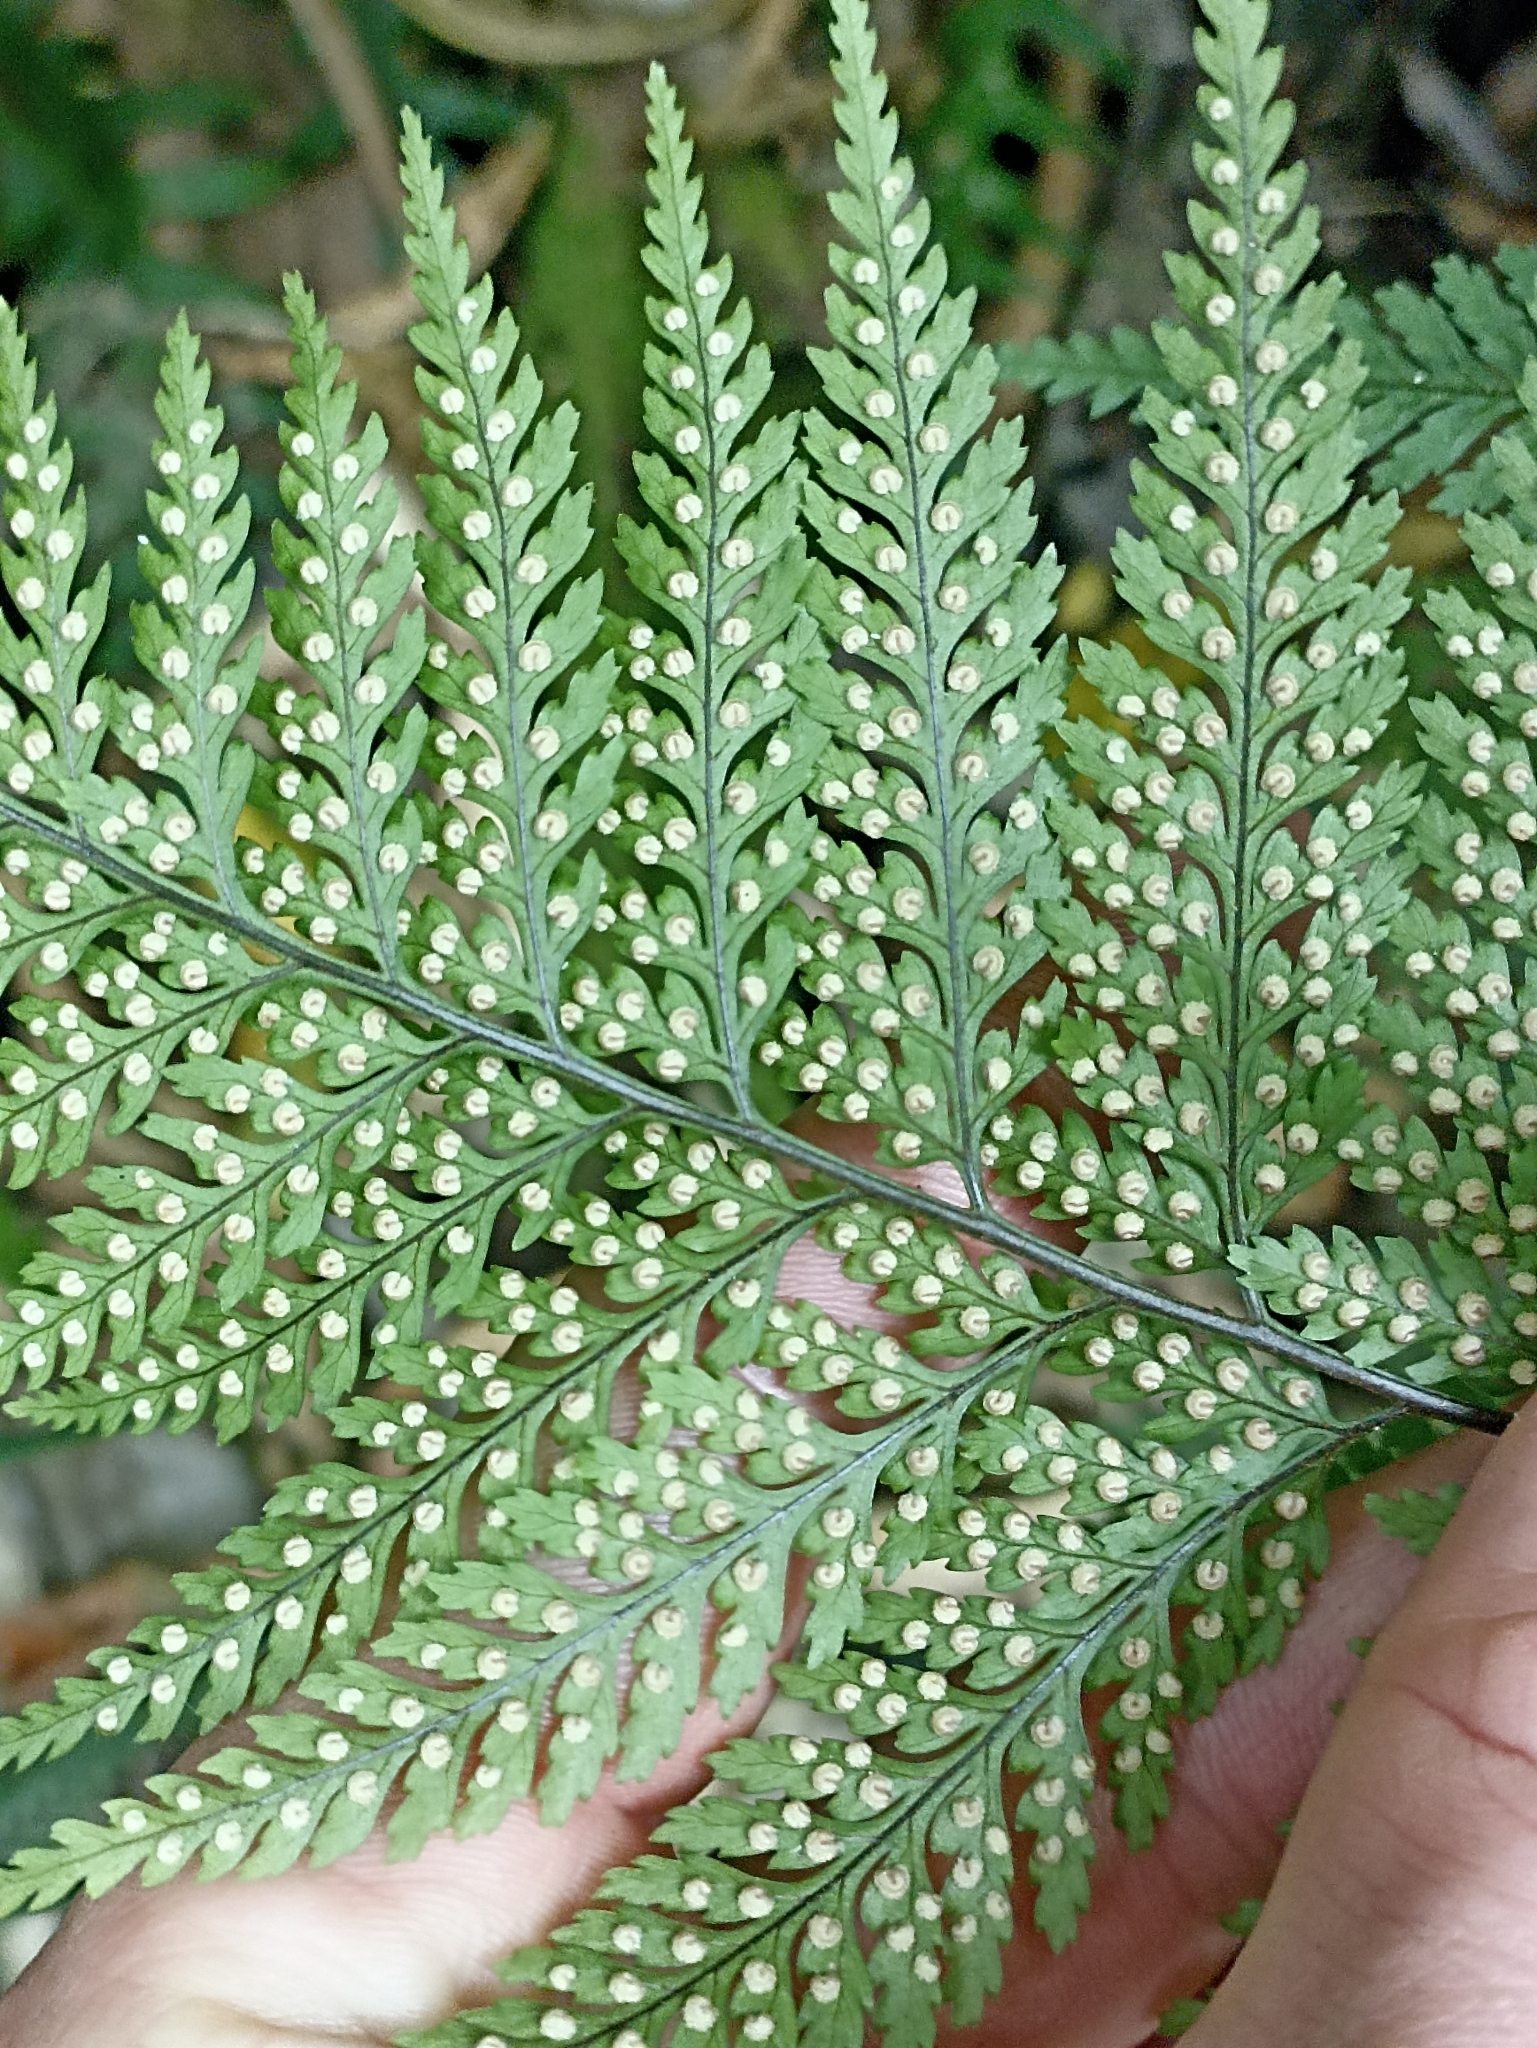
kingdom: Plantae
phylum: Tracheophyta
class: Polypodiopsida
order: Polypodiales
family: Dryopteridaceae
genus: Parapolystichum
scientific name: Parapolystichum glabellum
